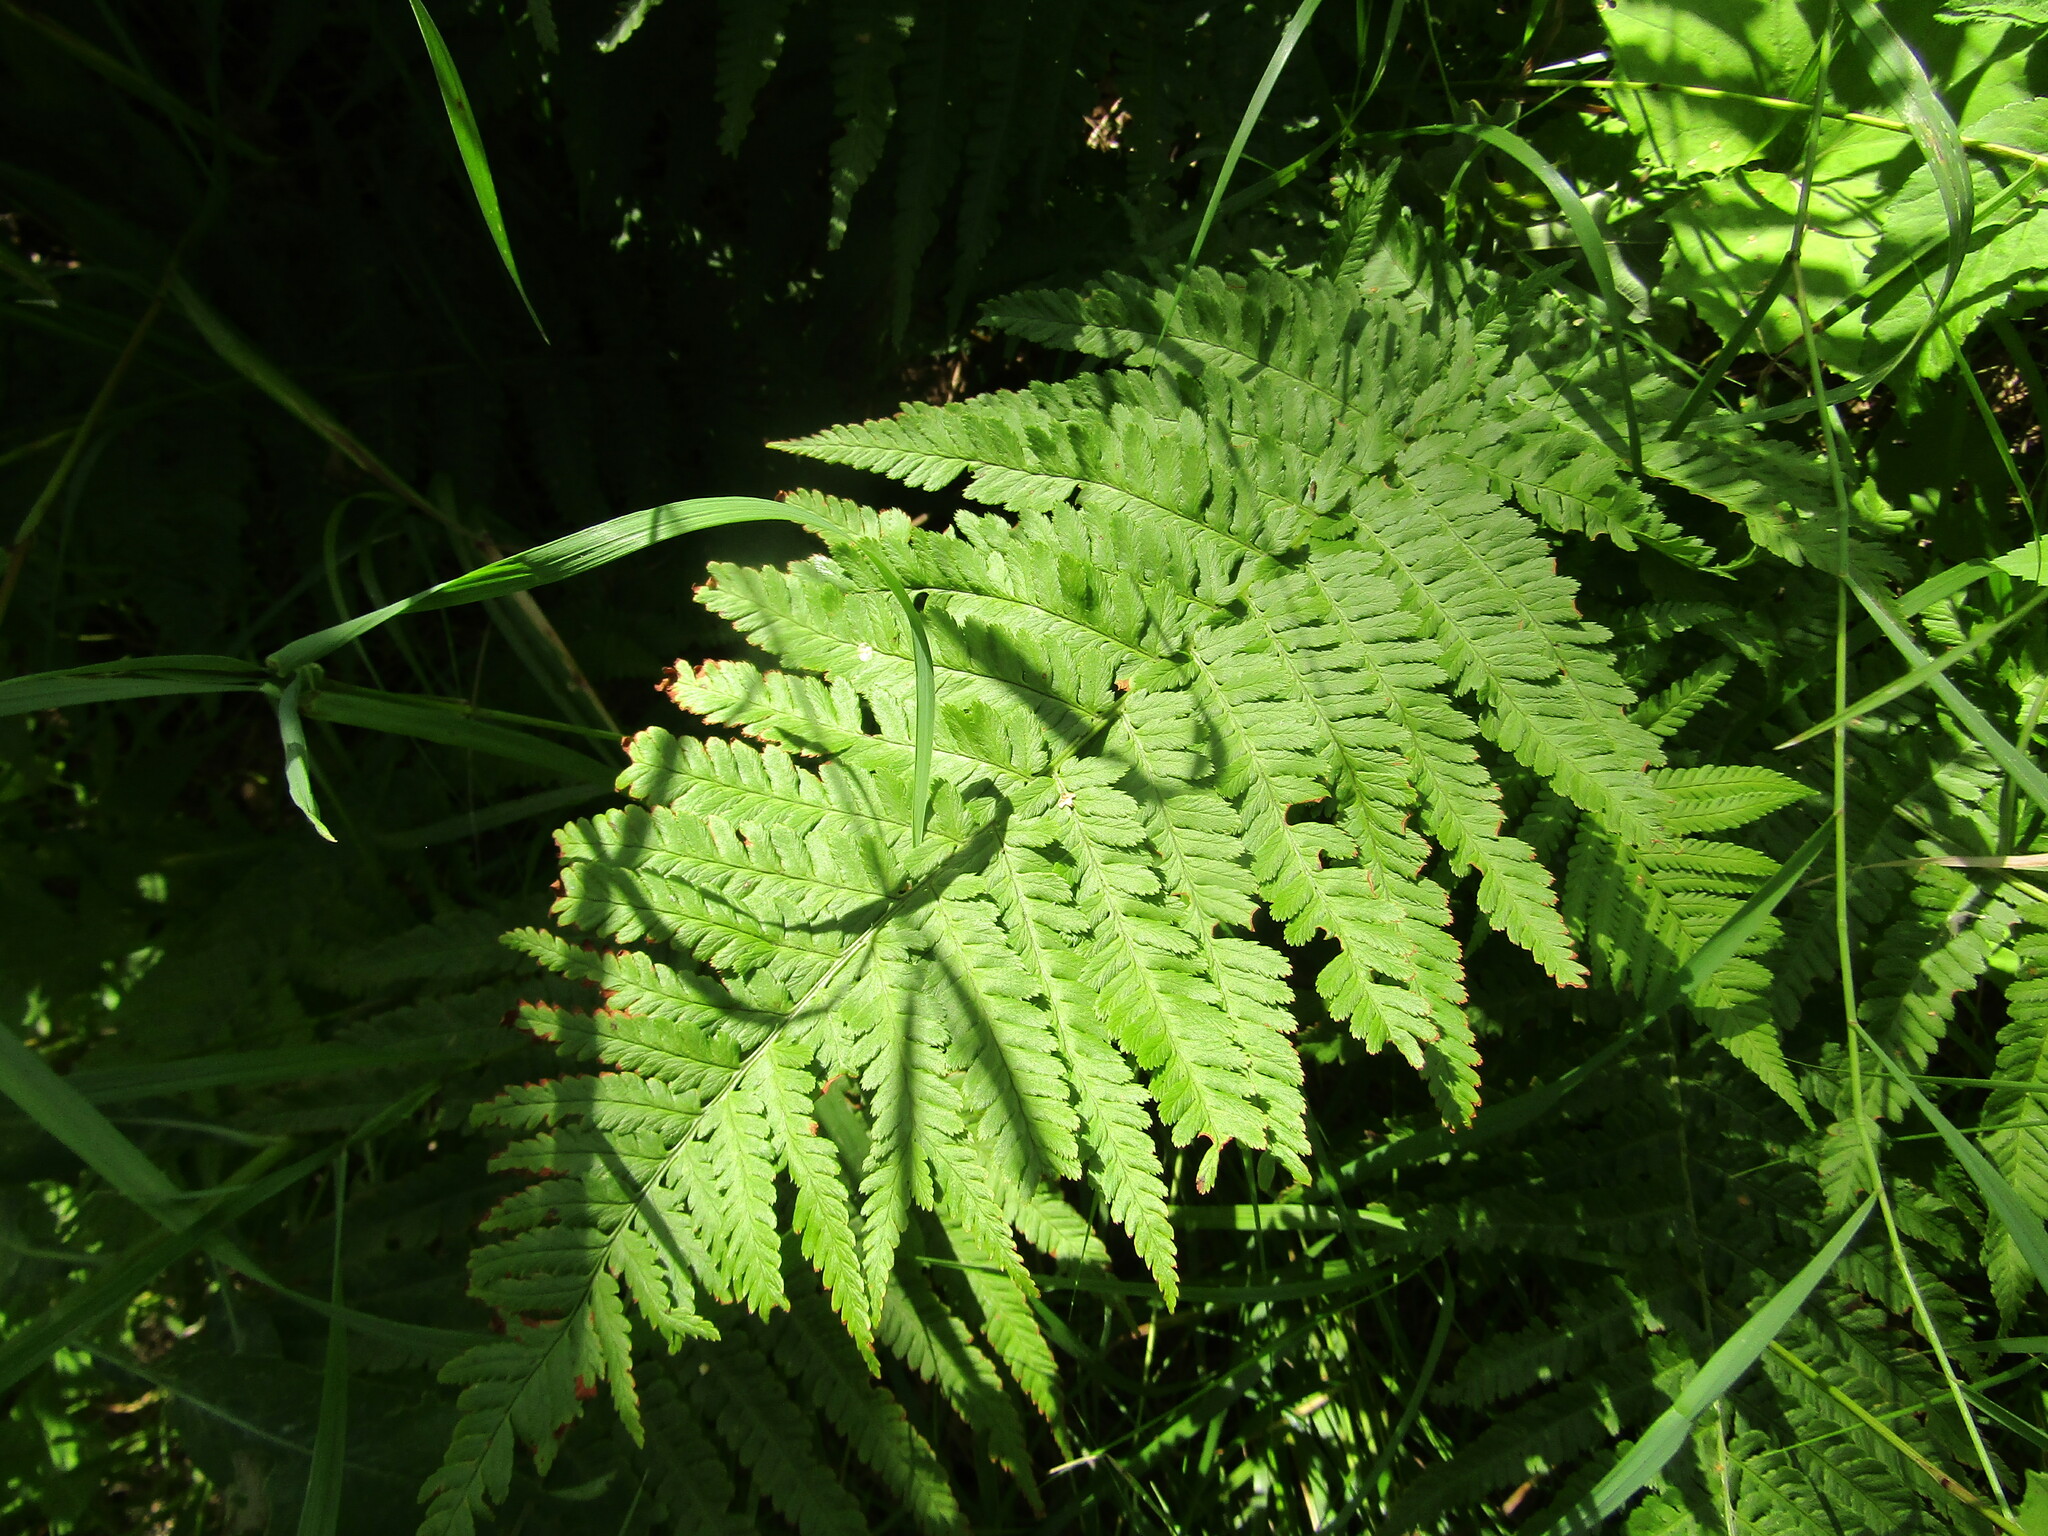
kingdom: Plantae
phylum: Tracheophyta
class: Polypodiopsida
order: Polypodiales
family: Dryopteridaceae
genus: Dryopteris
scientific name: Dryopteris filix-mas
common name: Male fern
